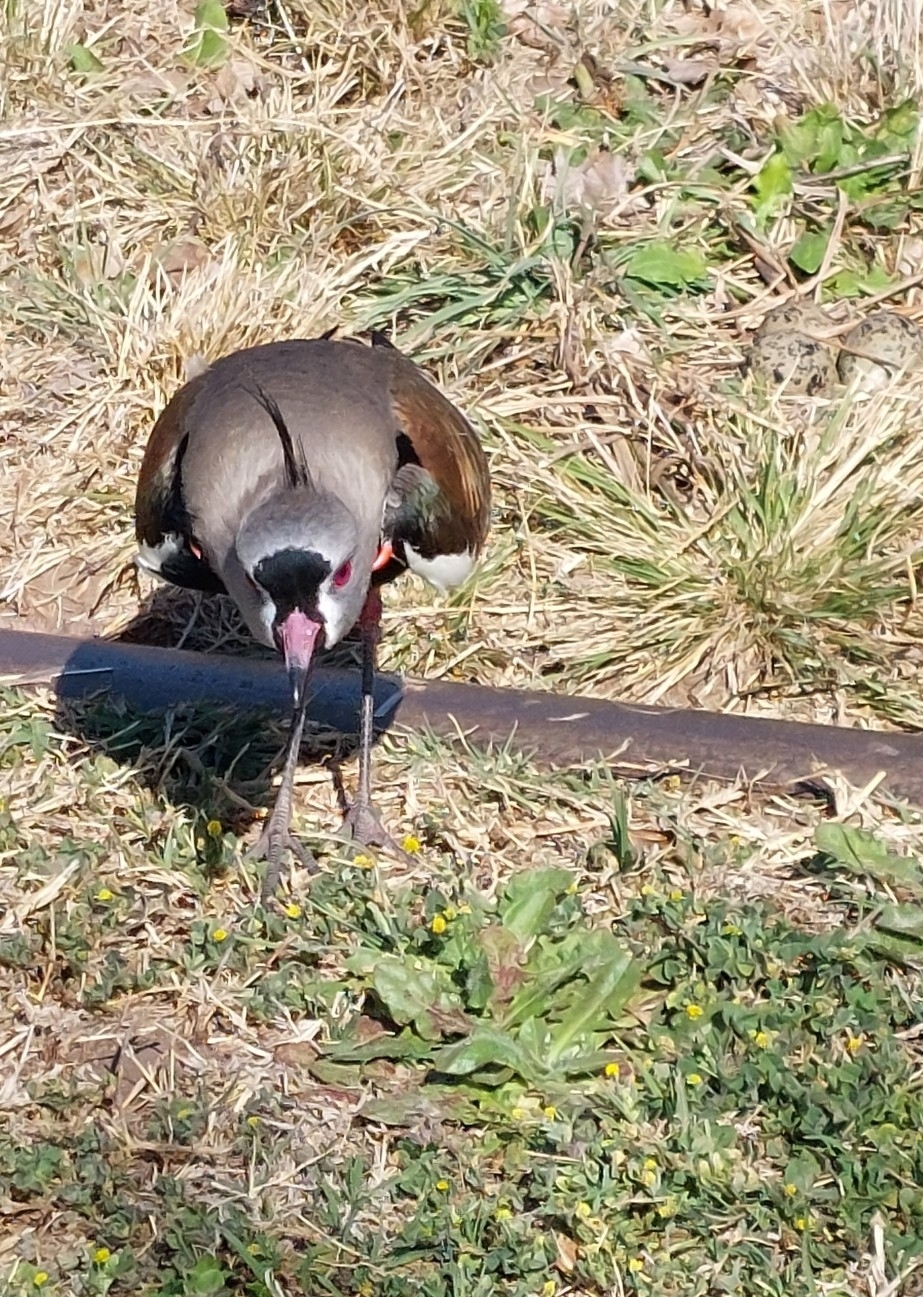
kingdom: Animalia
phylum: Chordata
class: Aves
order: Charadriiformes
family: Charadriidae
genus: Vanellus
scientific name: Vanellus chilensis
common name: Southern lapwing
